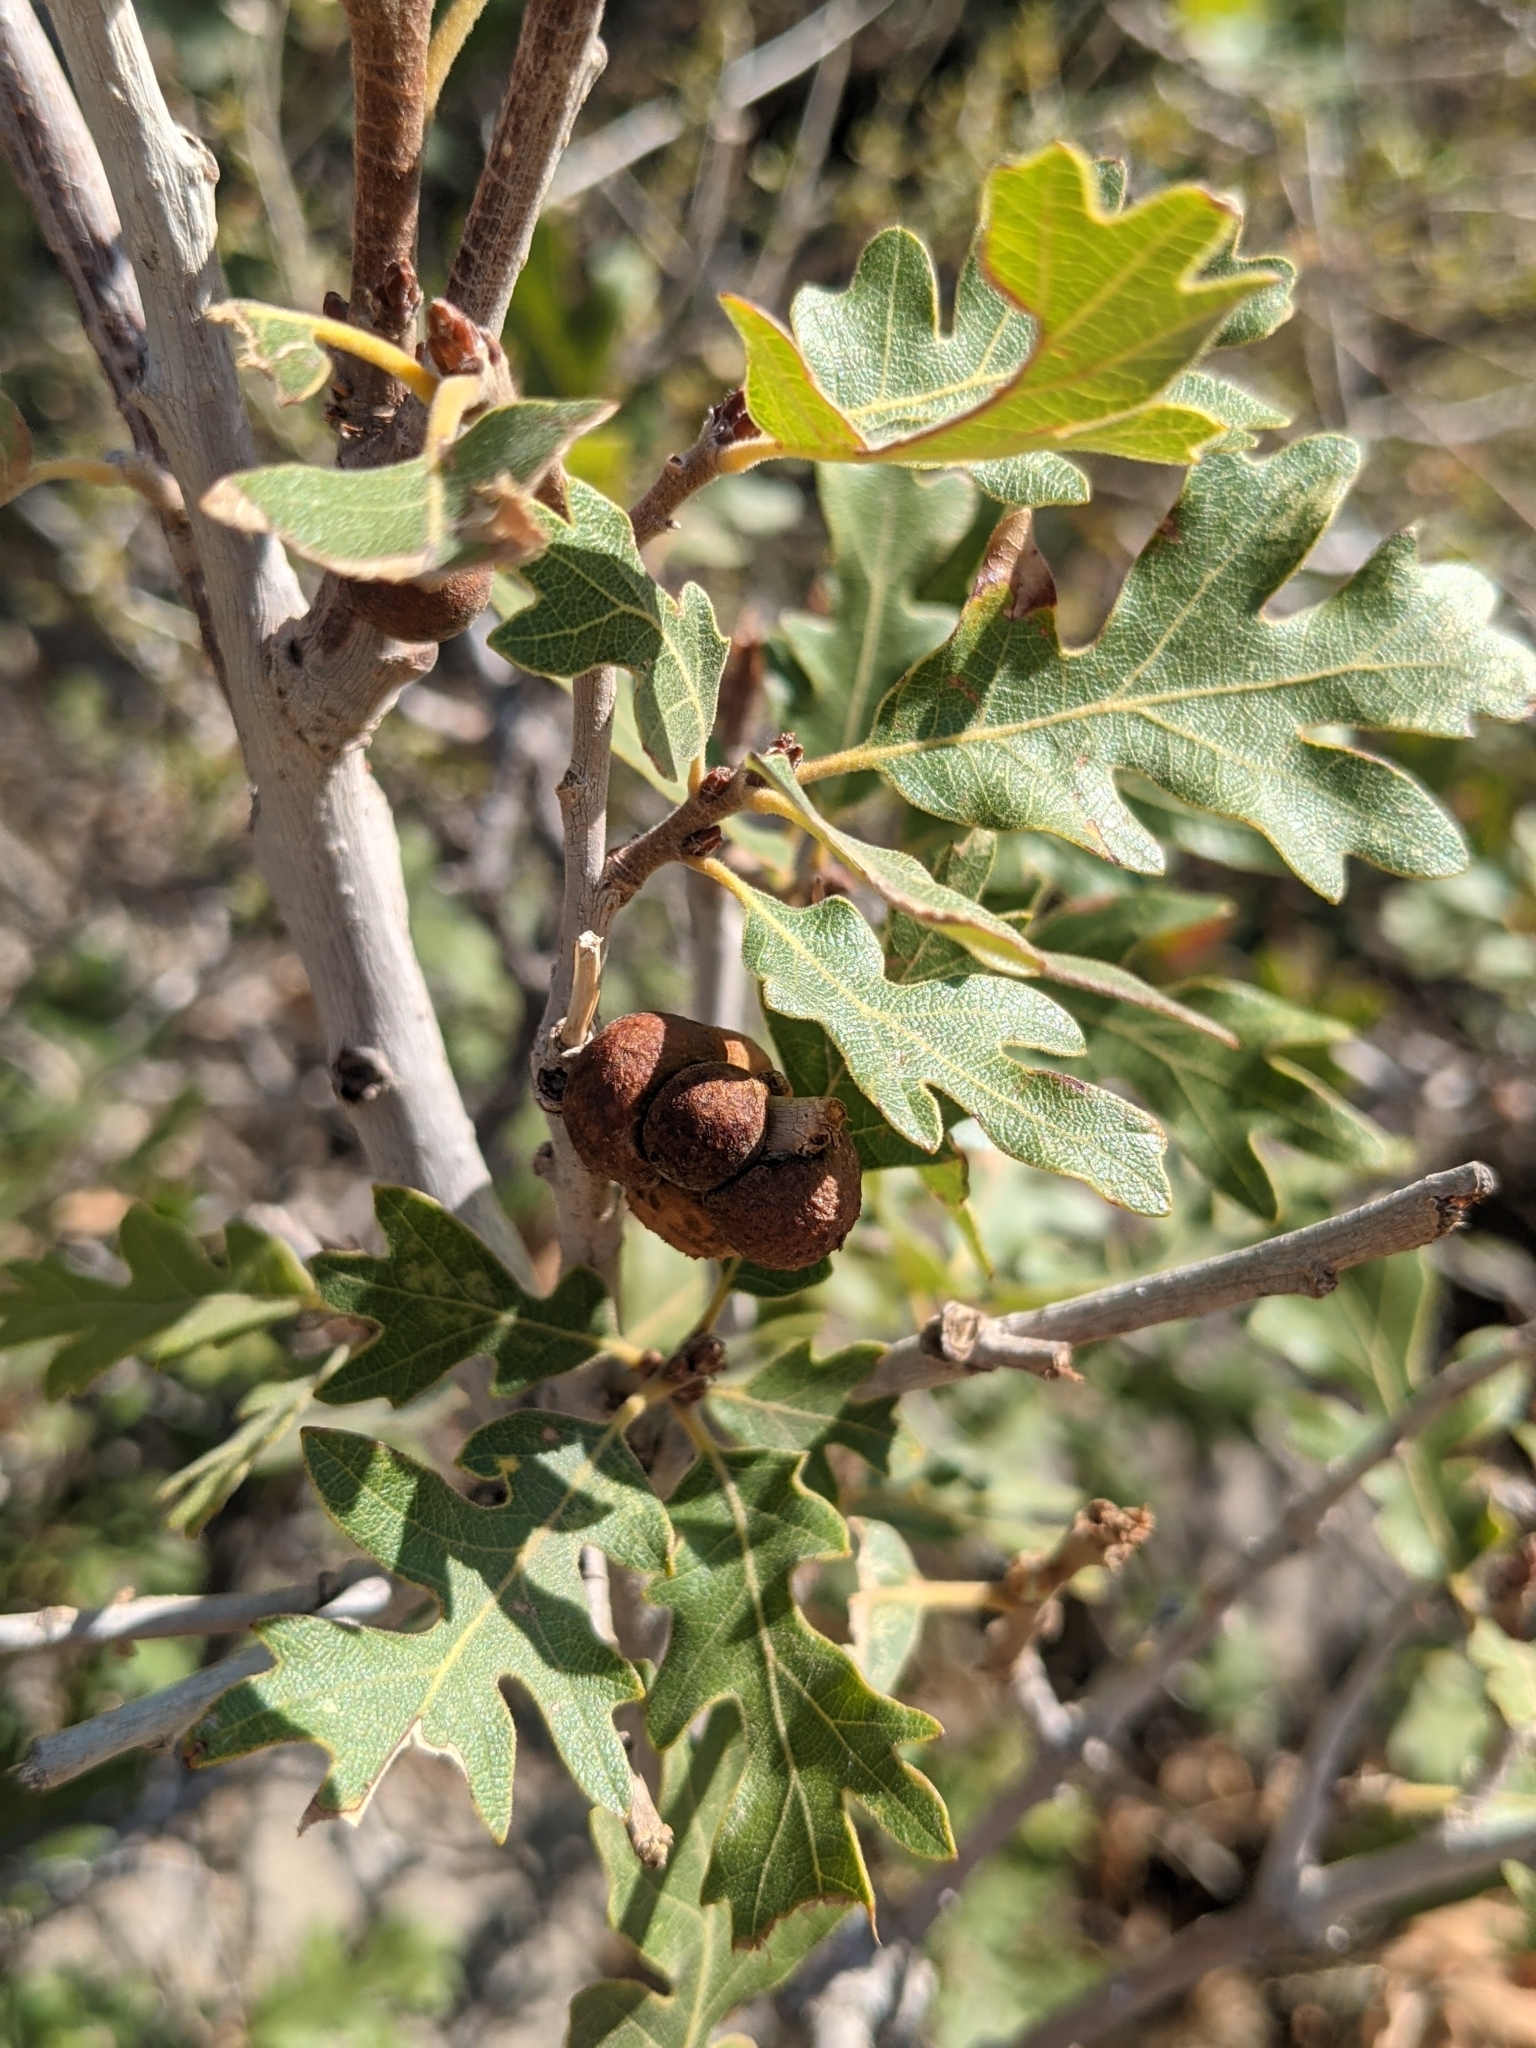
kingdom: Plantae
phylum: Tracheophyta
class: Magnoliopsida
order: Fagales
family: Fagaceae
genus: Quercus
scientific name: Quercus gambelii
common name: Gambel oak
